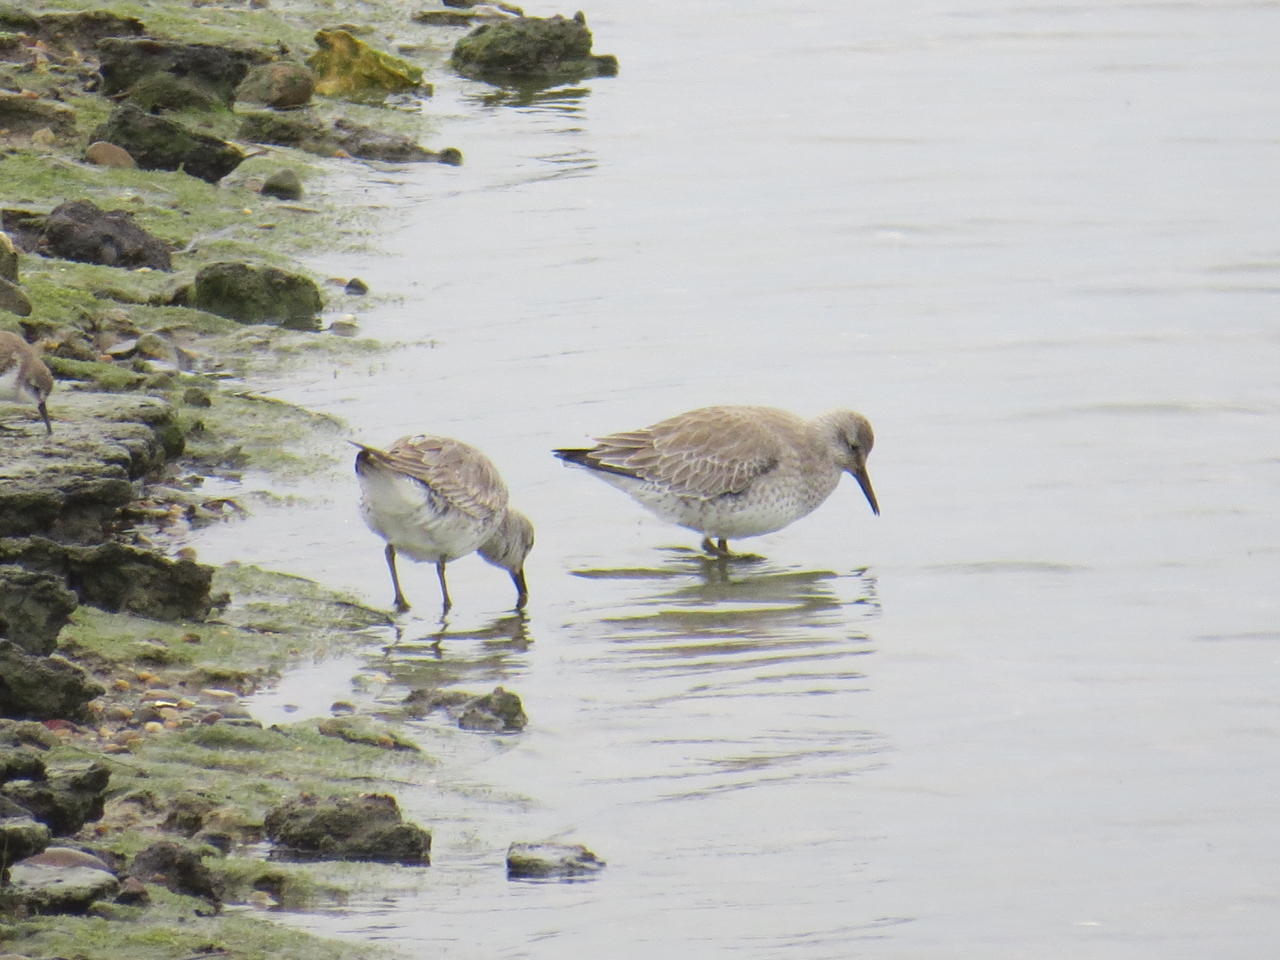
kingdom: Animalia
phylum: Chordata
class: Aves
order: Charadriiformes
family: Scolopacidae
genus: Calidris
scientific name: Calidris canutus
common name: Red knot
